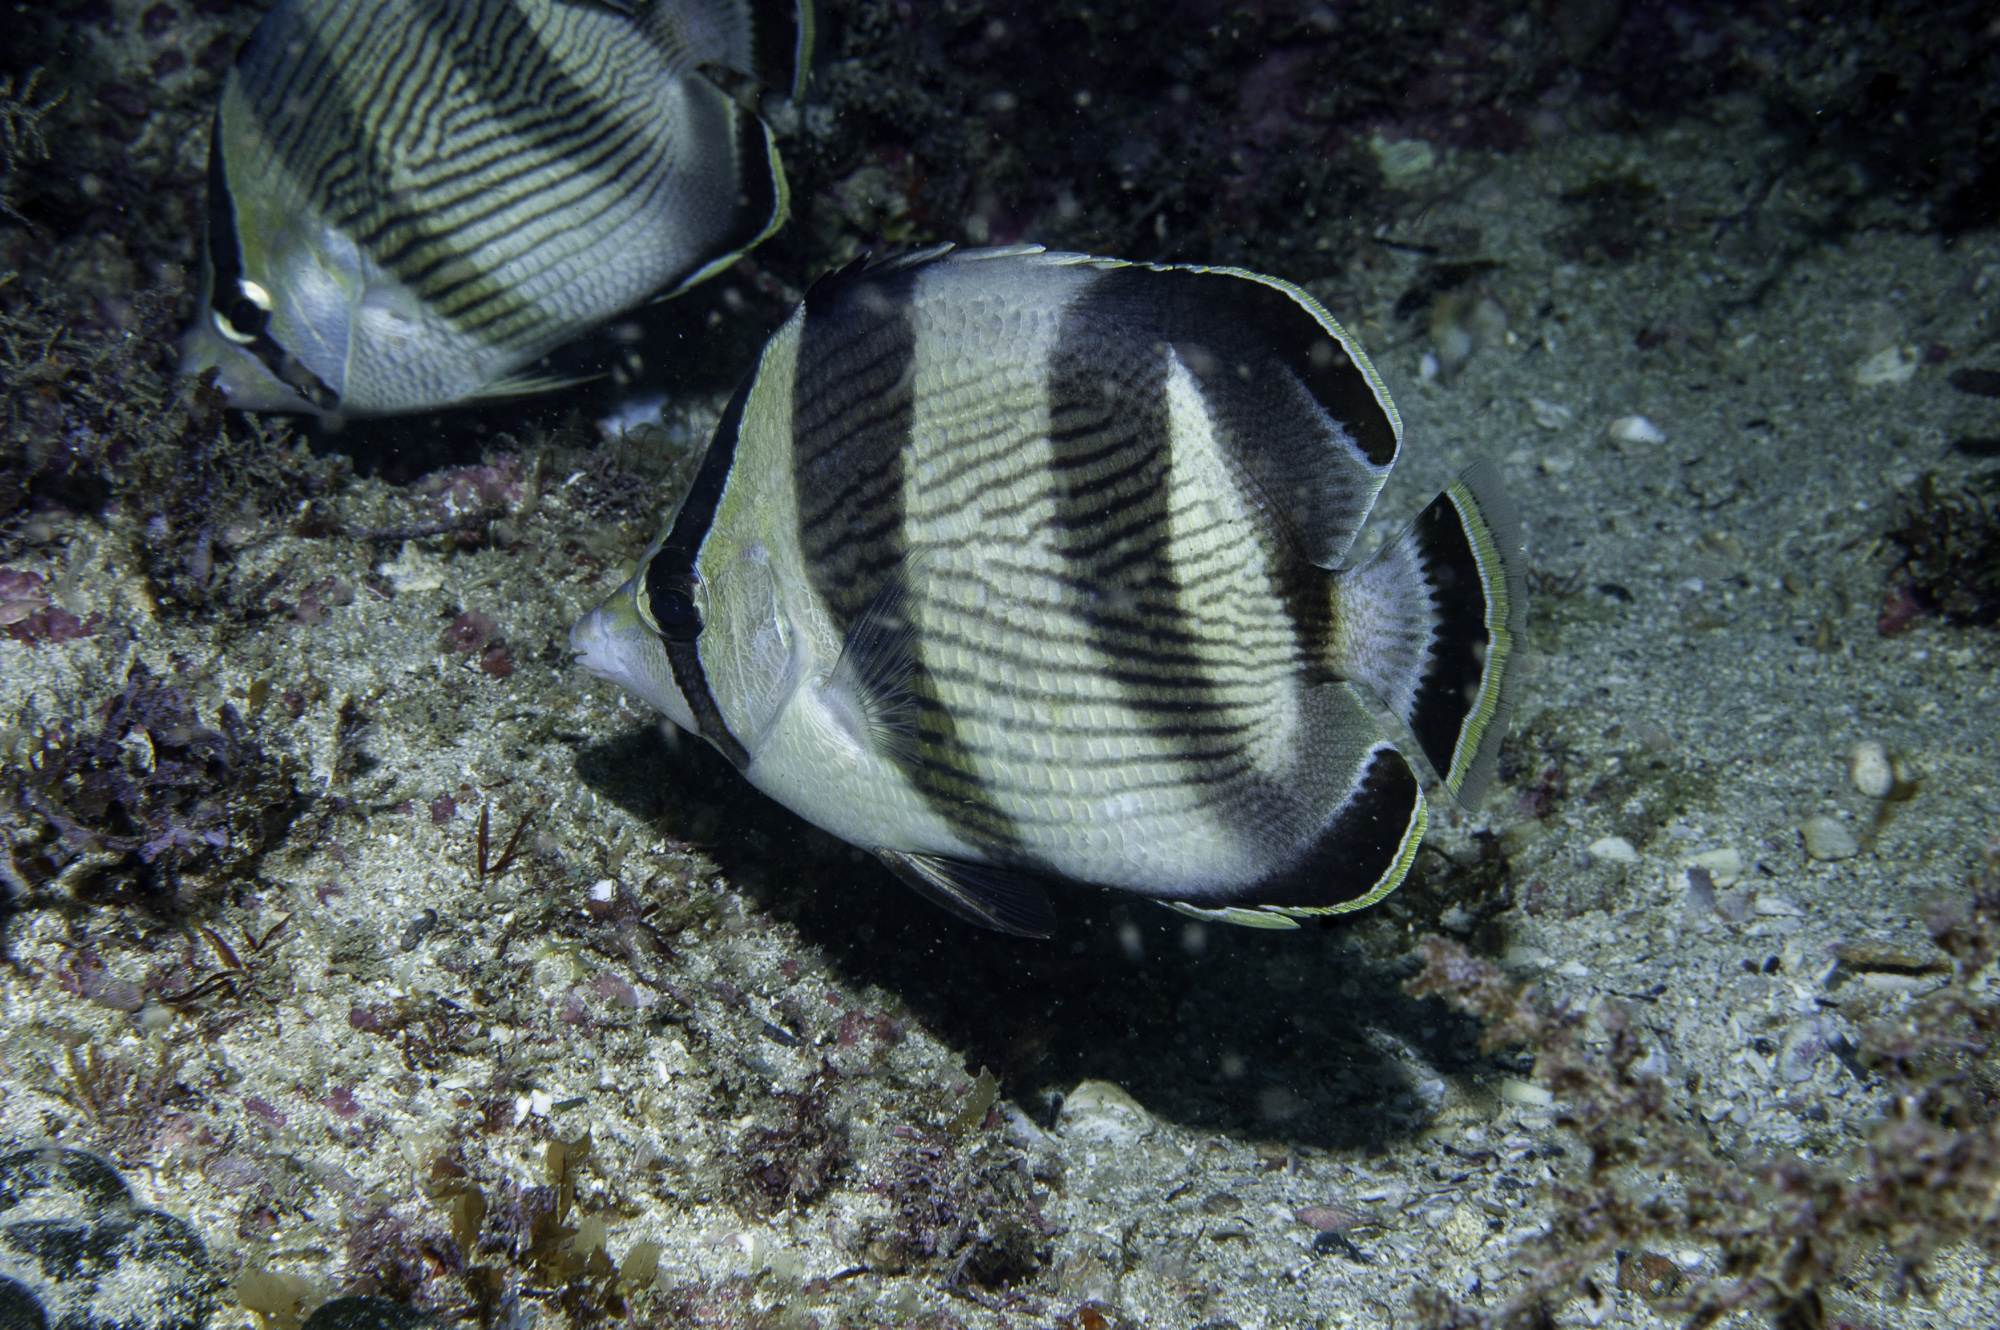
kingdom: Animalia
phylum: Chordata
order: Perciformes
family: Chaetodontidae
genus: Chaetodon
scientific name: Chaetodon striatus
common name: Banded butterflyfish
